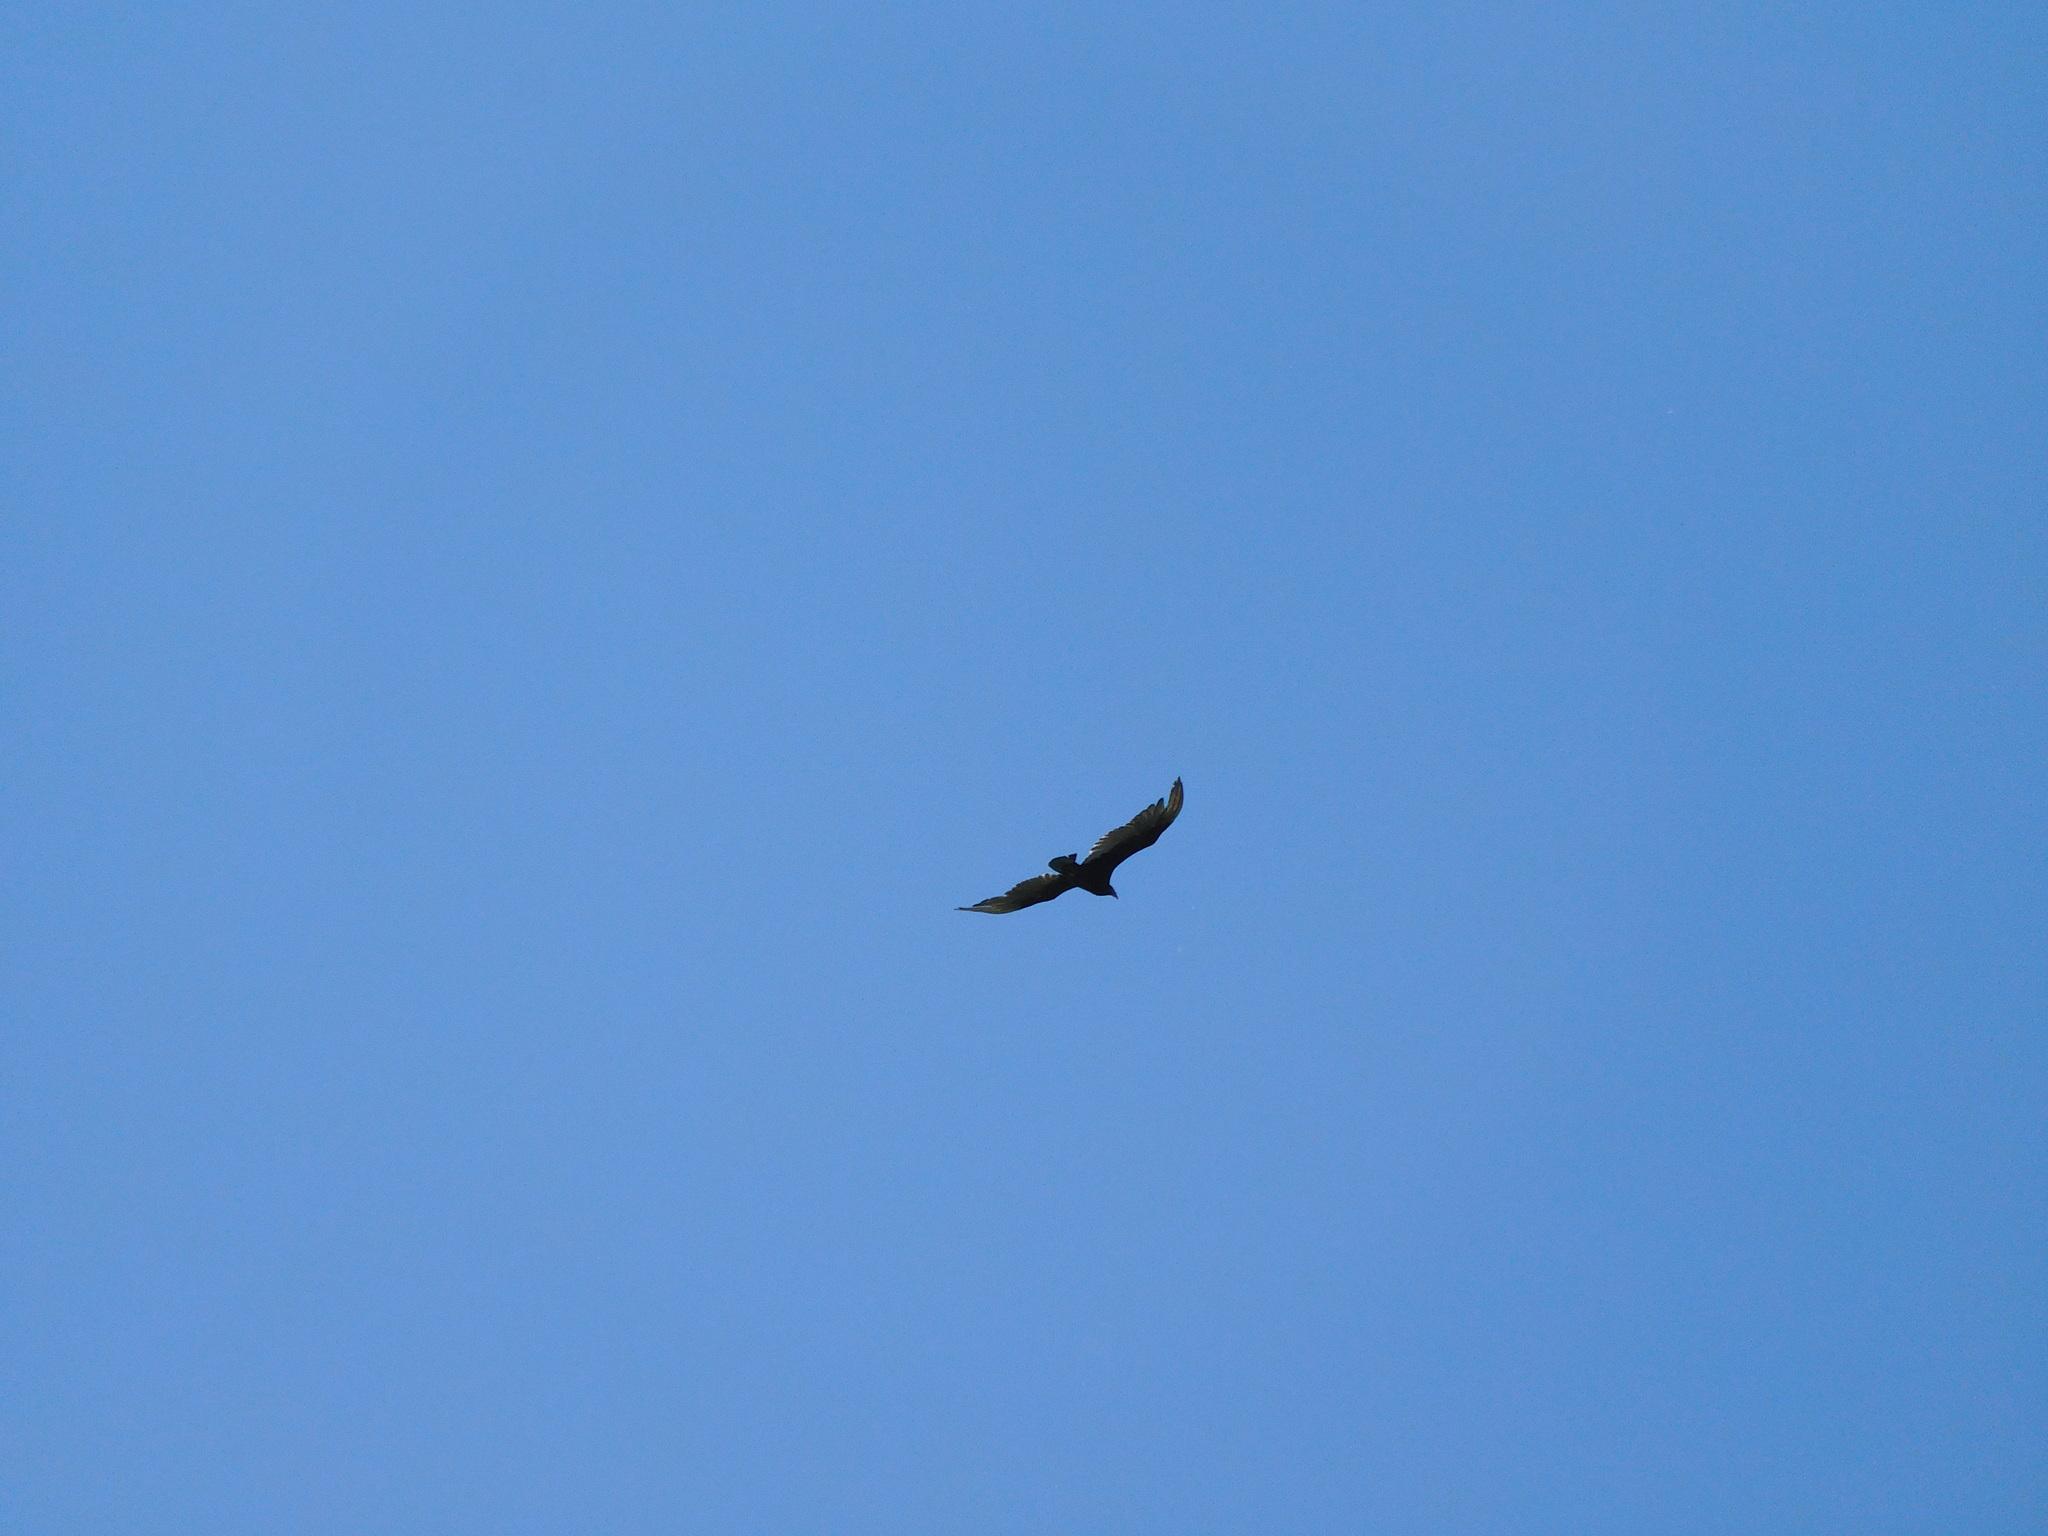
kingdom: Animalia
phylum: Chordata
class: Aves
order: Accipitriformes
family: Cathartidae
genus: Cathartes
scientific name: Cathartes aura
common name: Turkey vulture
